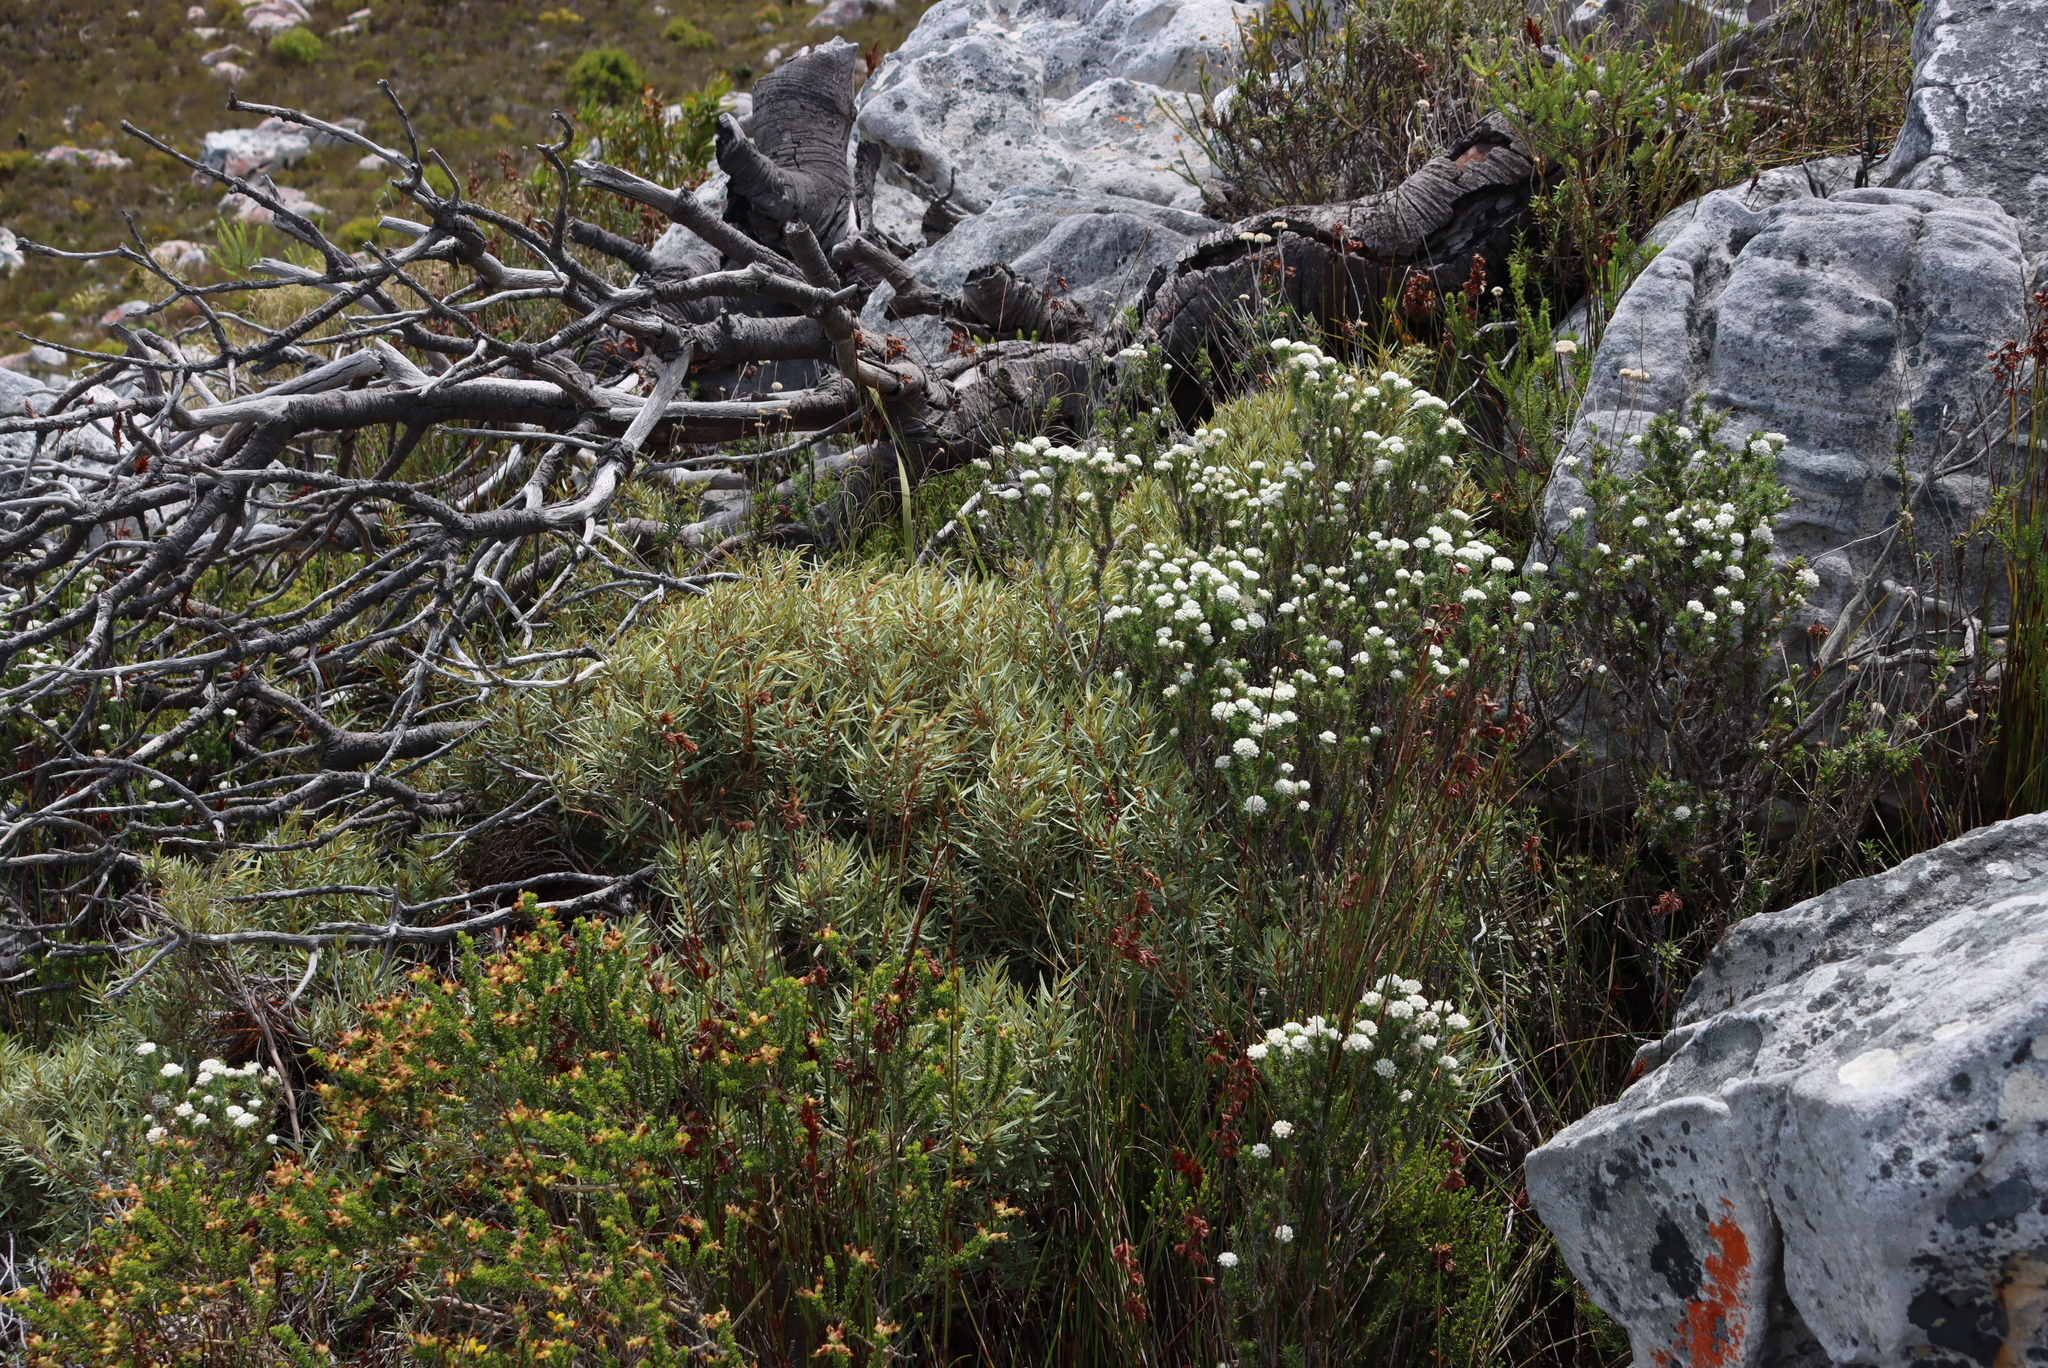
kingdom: Plantae
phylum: Tracheophyta
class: Magnoliopsida
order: Cornales
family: Grubbiaceae
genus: Grubbia
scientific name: Grubbia tomentosa
